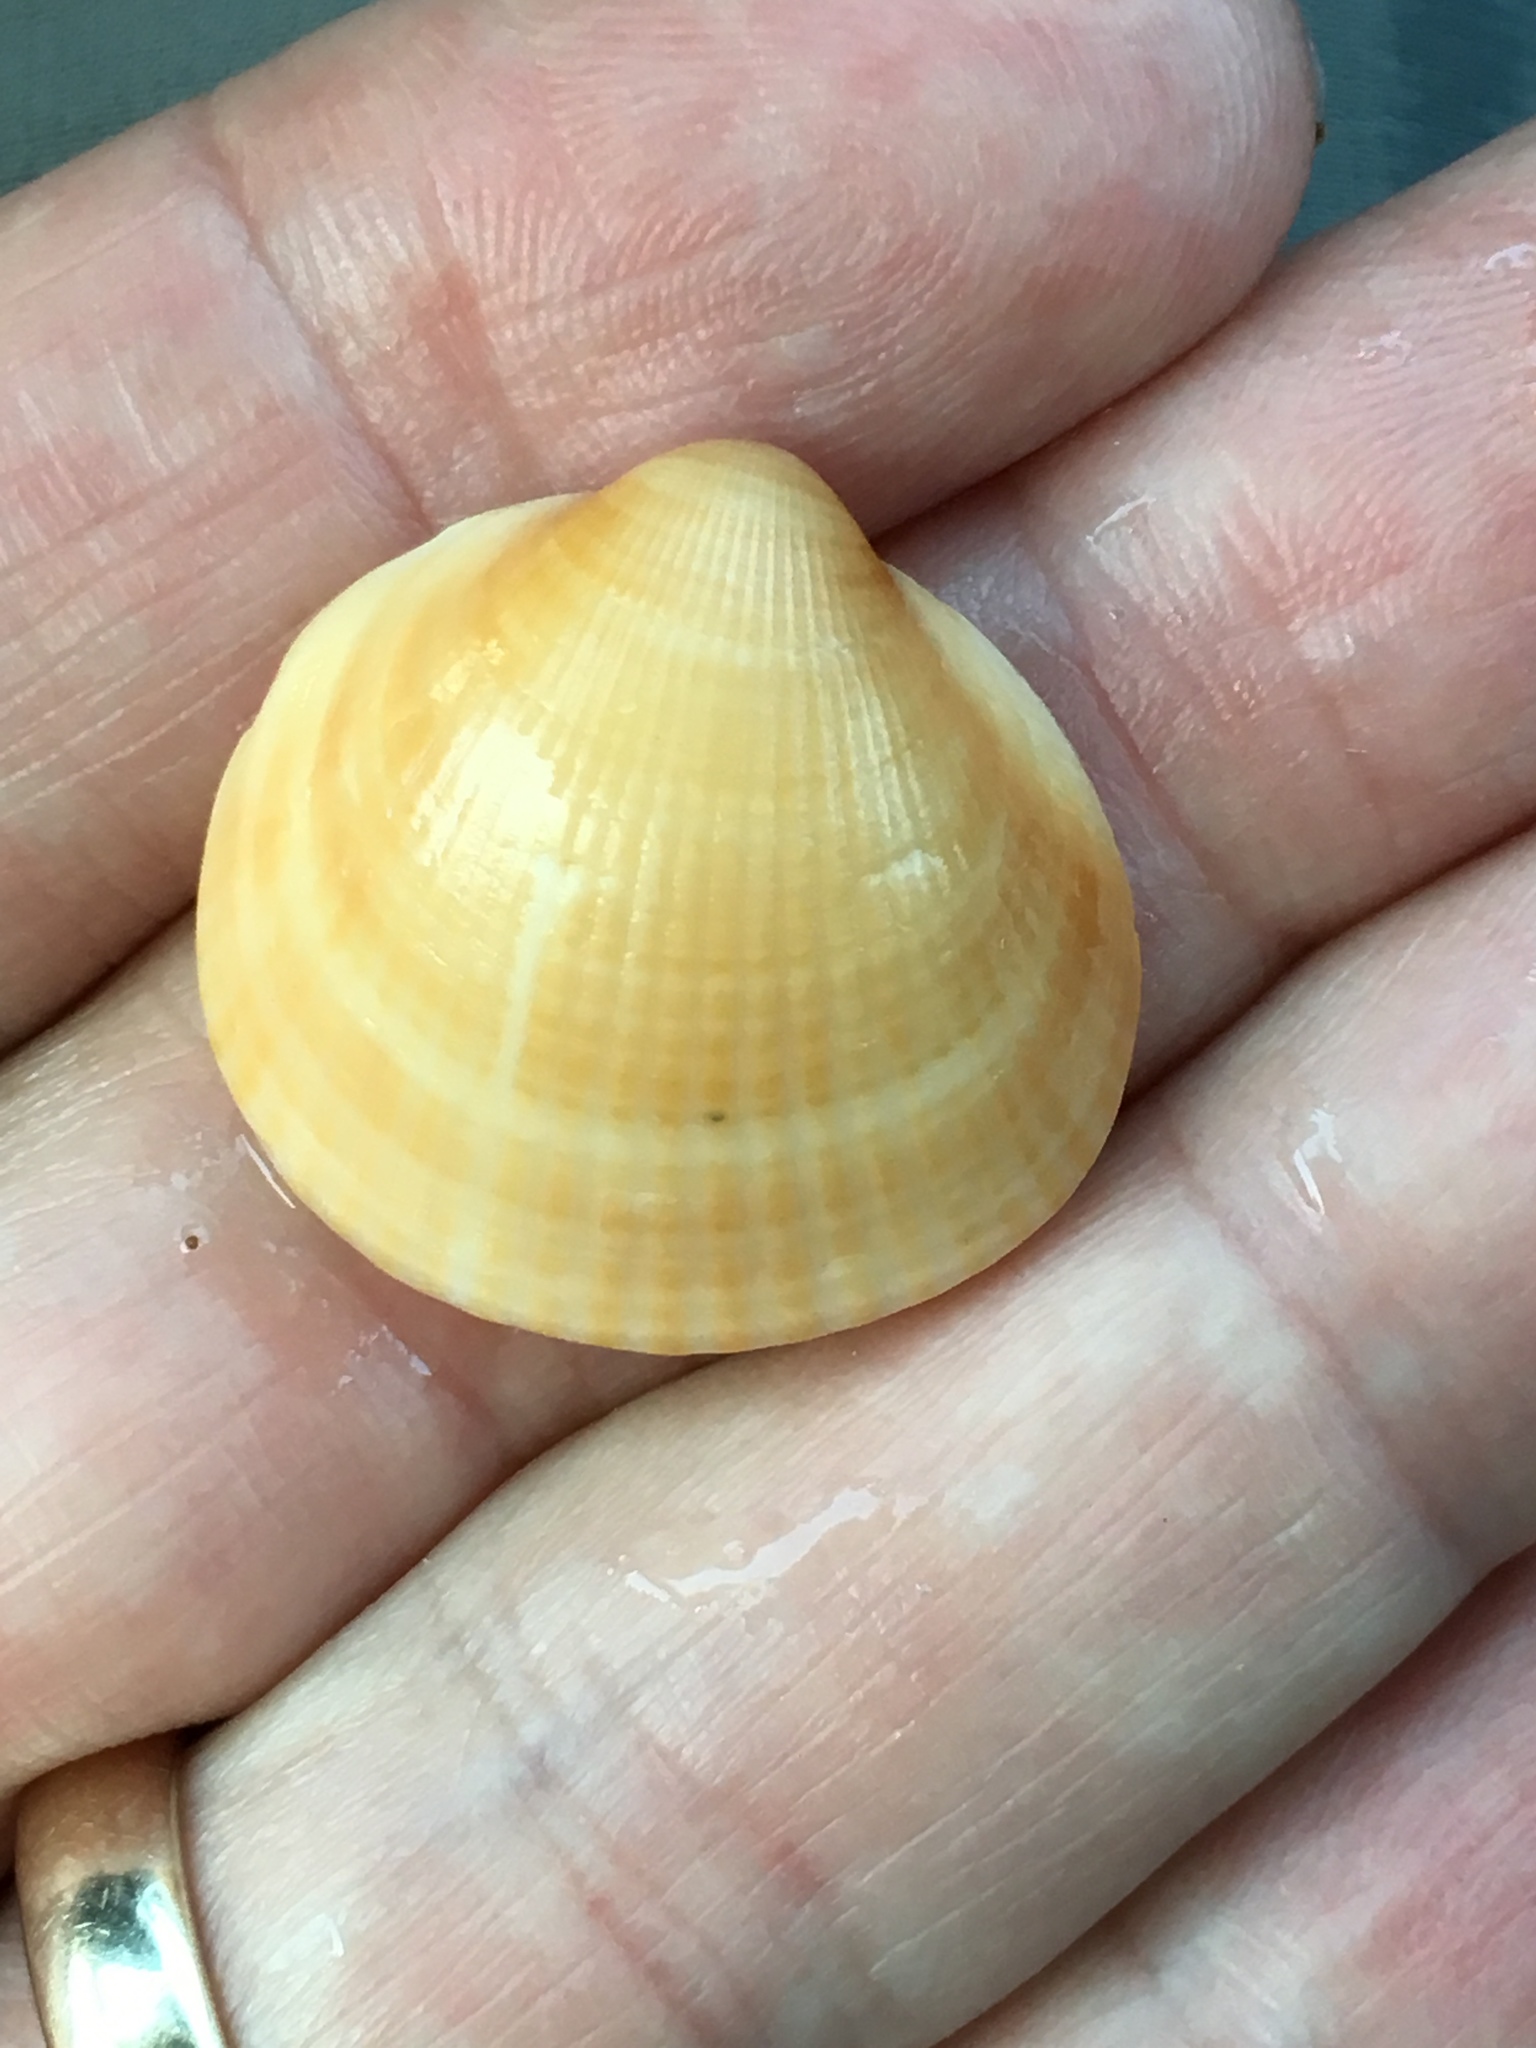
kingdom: Animalia
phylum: Mollusca
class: Bivalvia
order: Arcida
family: Glycymerididae
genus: Glycymeris
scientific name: Glycymeris spectralis
